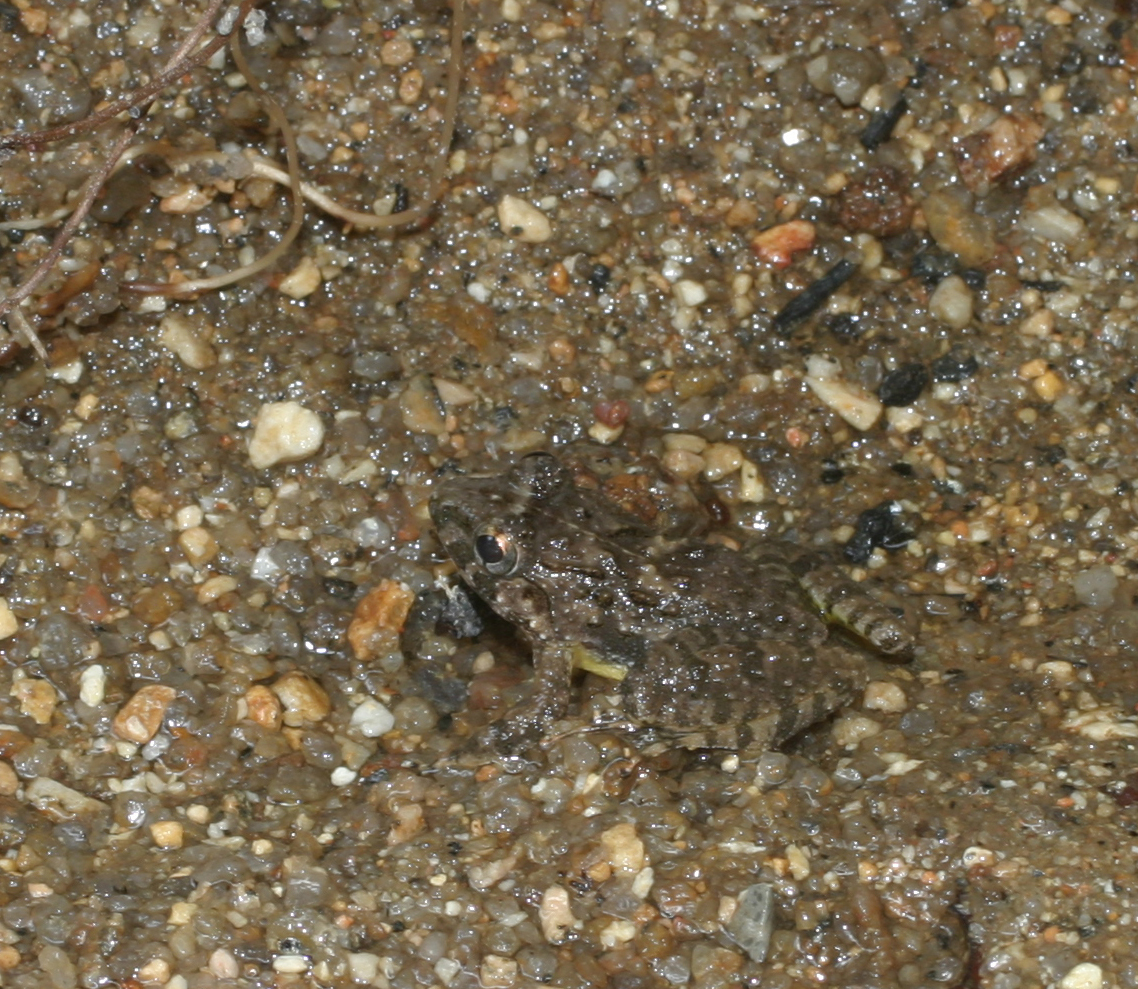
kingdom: Animalia
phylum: Chordata
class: Amphibia
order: Anura
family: Dicroglossidae
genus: Limnonectes
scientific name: Limnonectes macrognathus
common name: Large-headed frog
